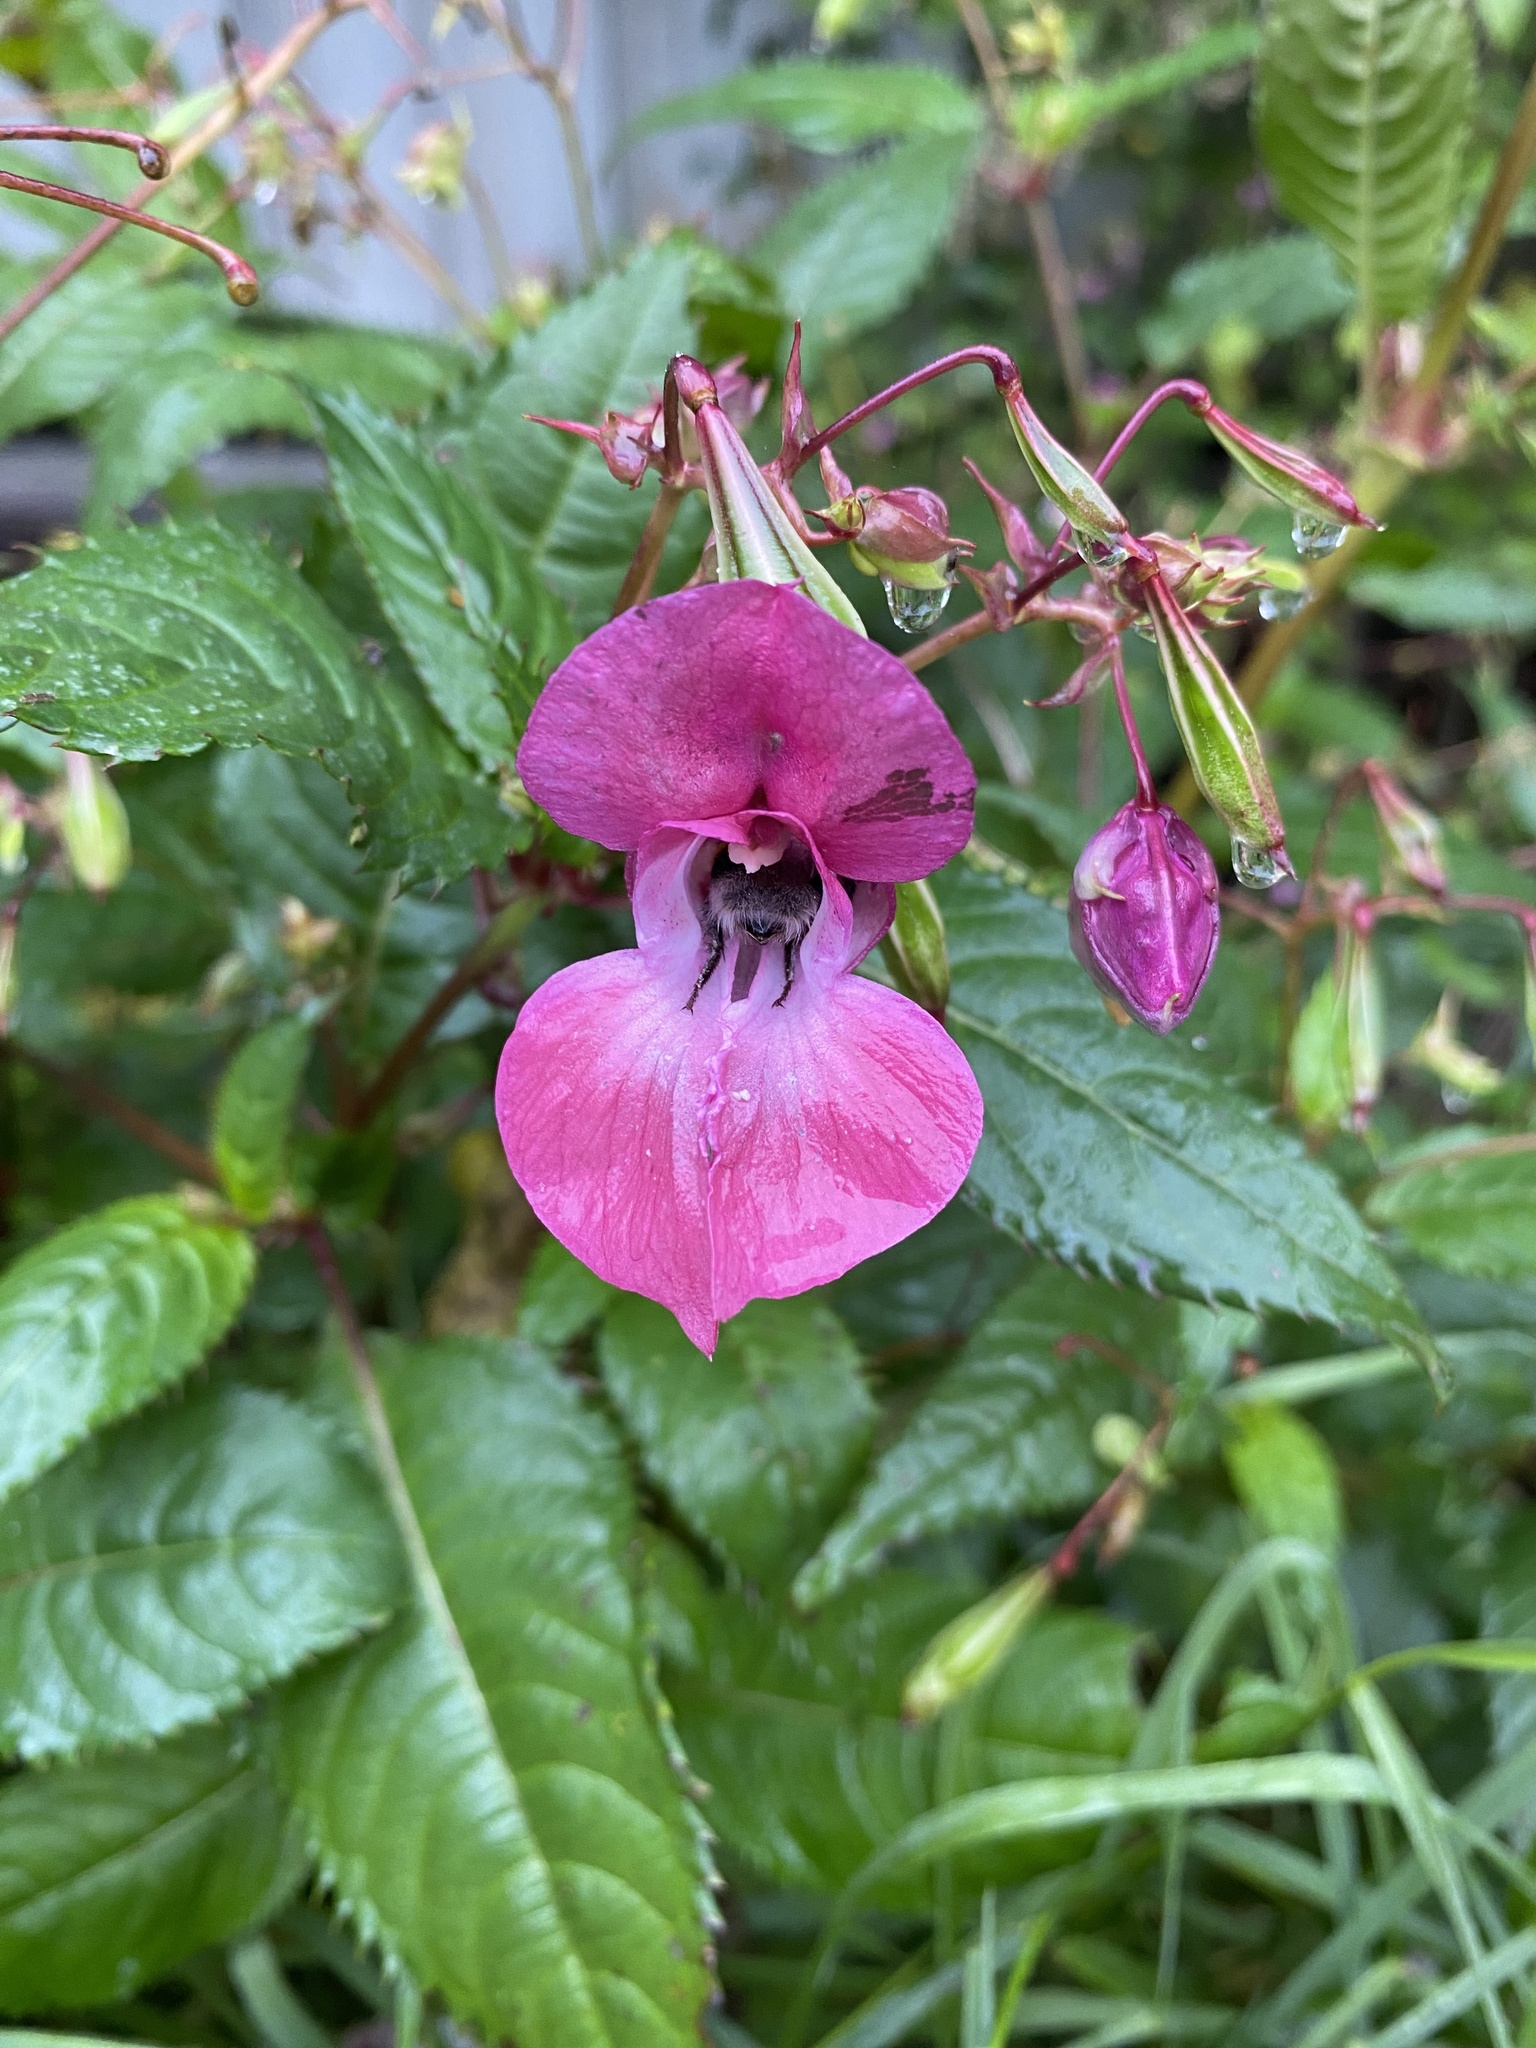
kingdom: Plantae
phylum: Tracheophyta
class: Magnoliopsida
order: Ericales
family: Balsaminaceae
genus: Impatiens
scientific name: Impatiens glandulifera
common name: Himalayan balsam
